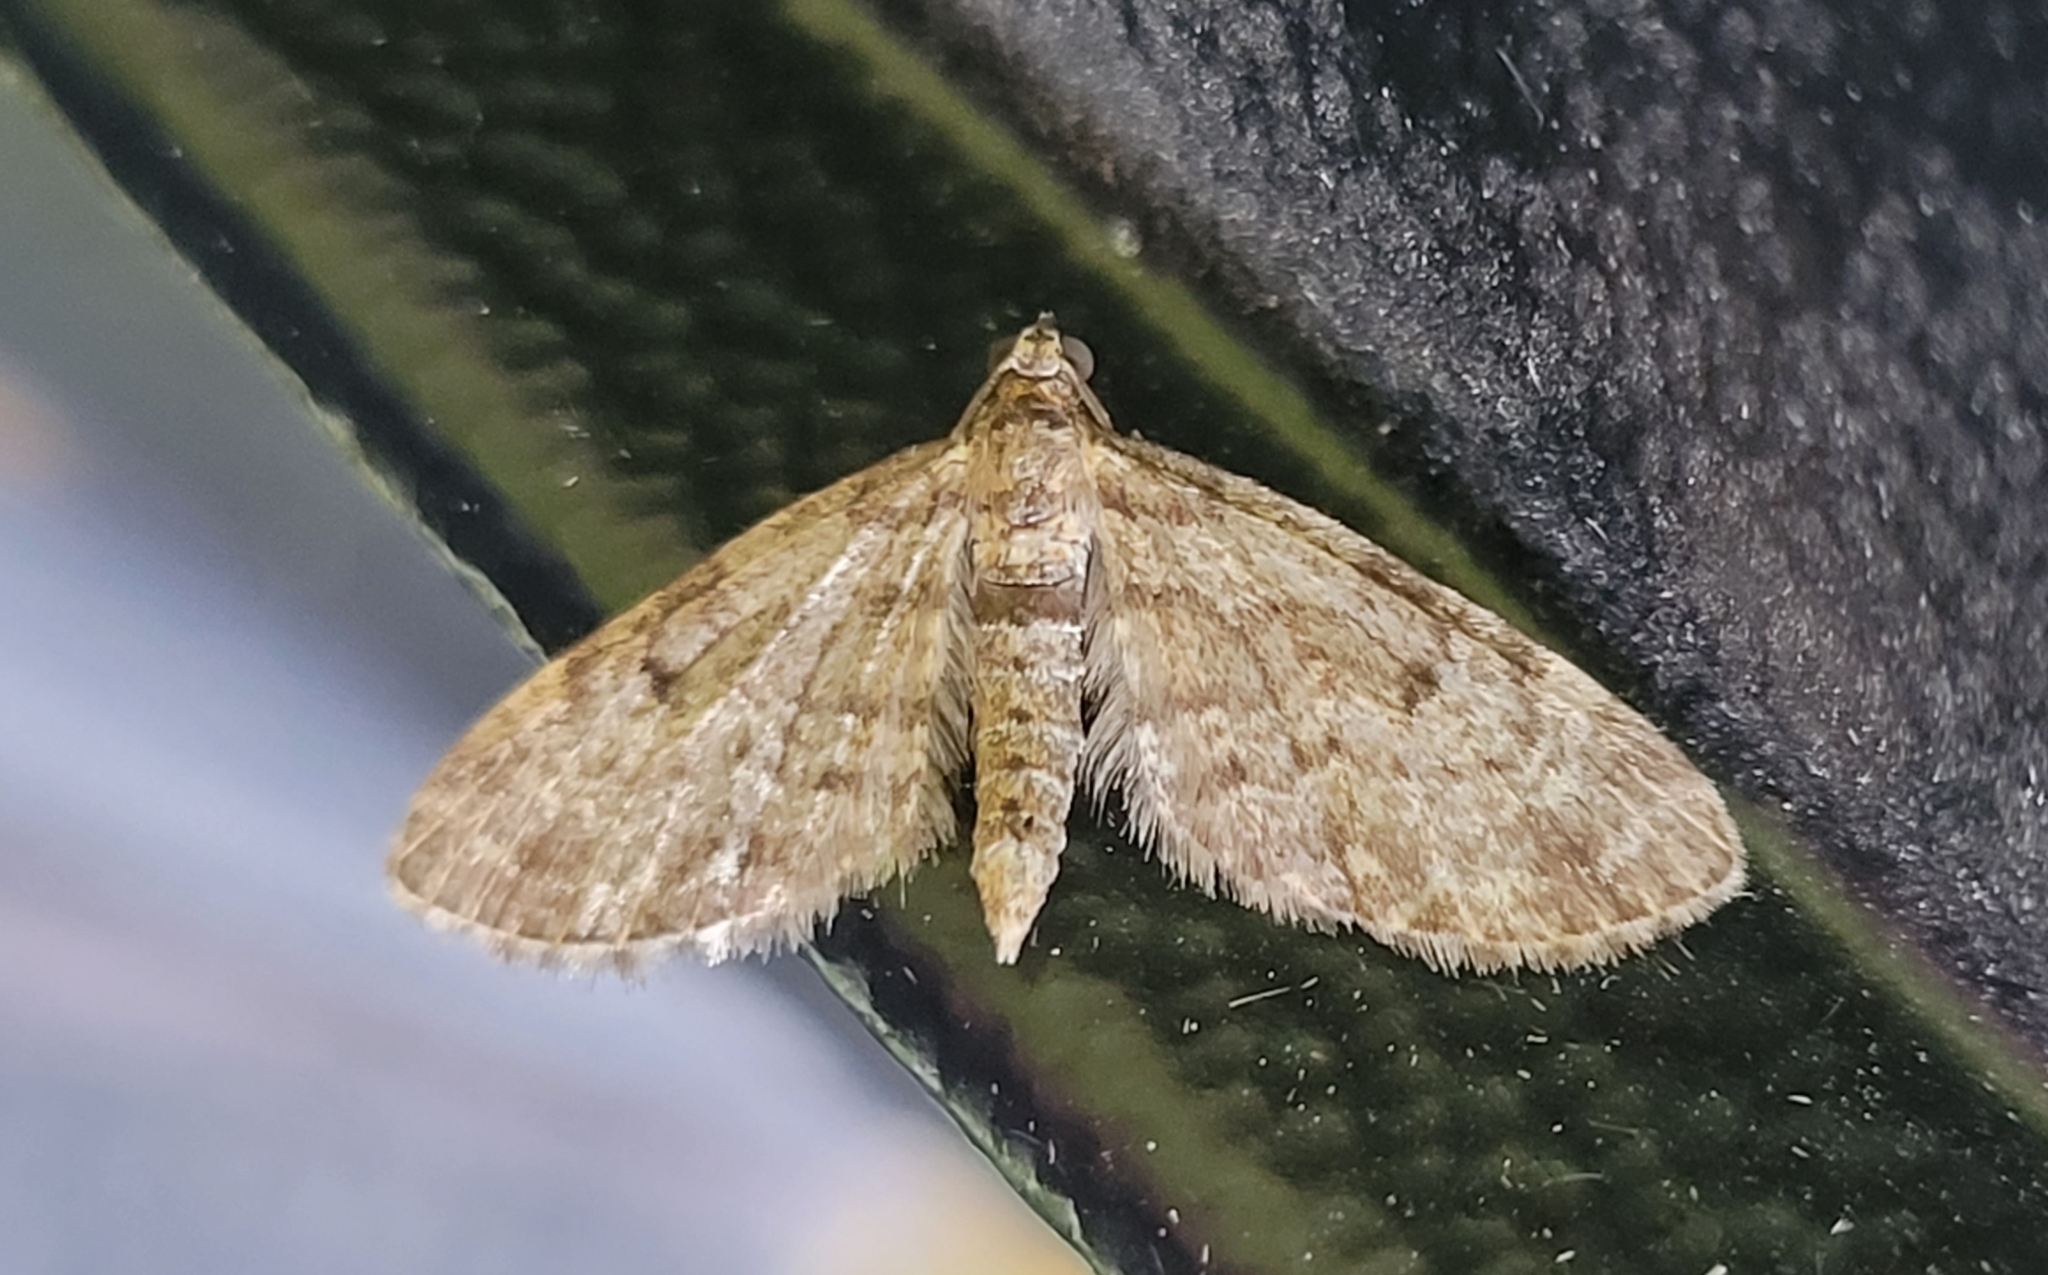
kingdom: Animalia
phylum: Arthropoda
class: Insecta
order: Lepidoptera
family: Geometridae
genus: Eupithecia
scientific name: Eupithecia indigata
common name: Ochreous pug
